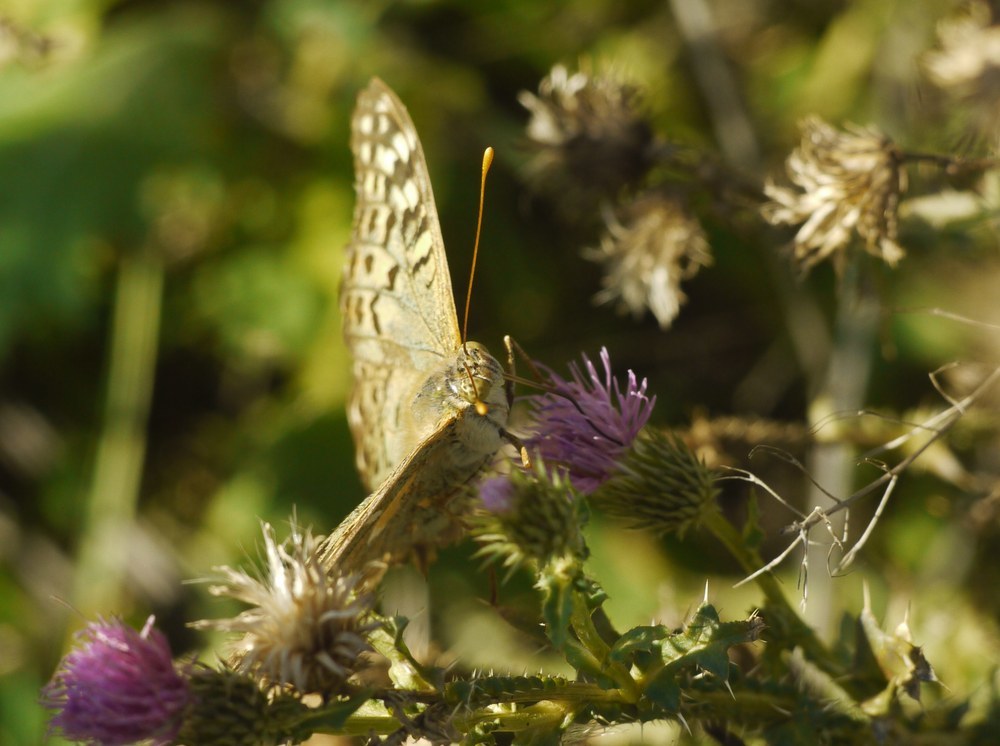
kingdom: Animalia
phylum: Arthropoda
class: Insecta
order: Lepidoptera
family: Nymphalidae
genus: Damora
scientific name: Damora pandora
